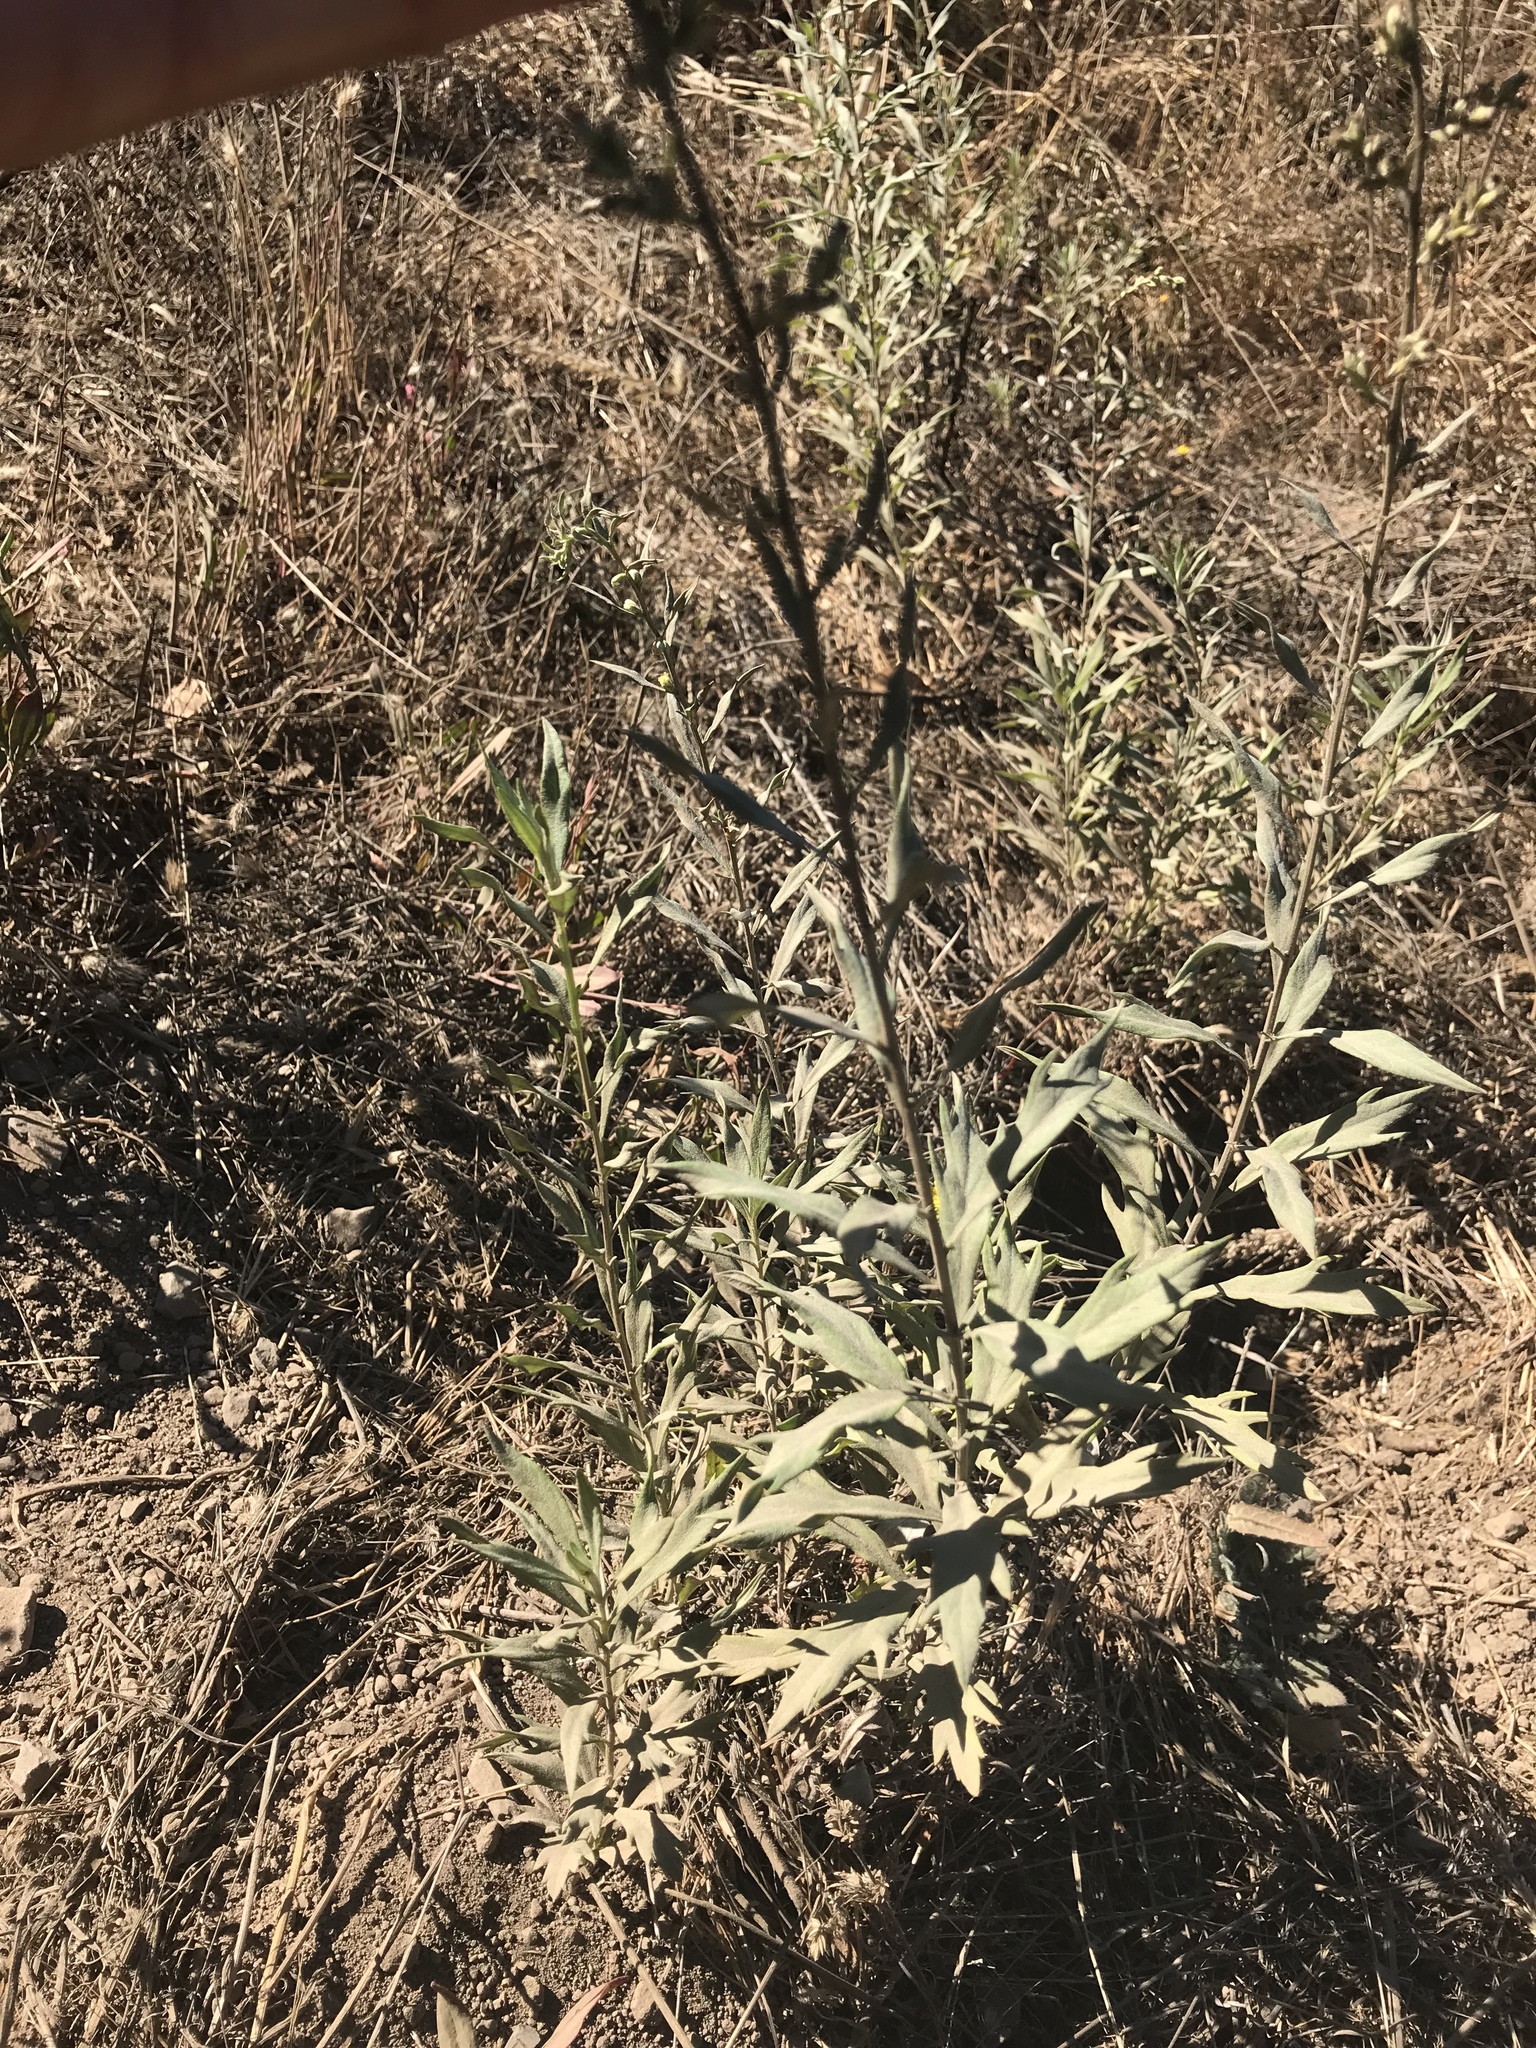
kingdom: Plantae
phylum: Tracheophyta
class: Magnoliopsida
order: Asterales
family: Asteraceae
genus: Artemisia
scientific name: Artemisia douglasiana
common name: Northwest mugwort
